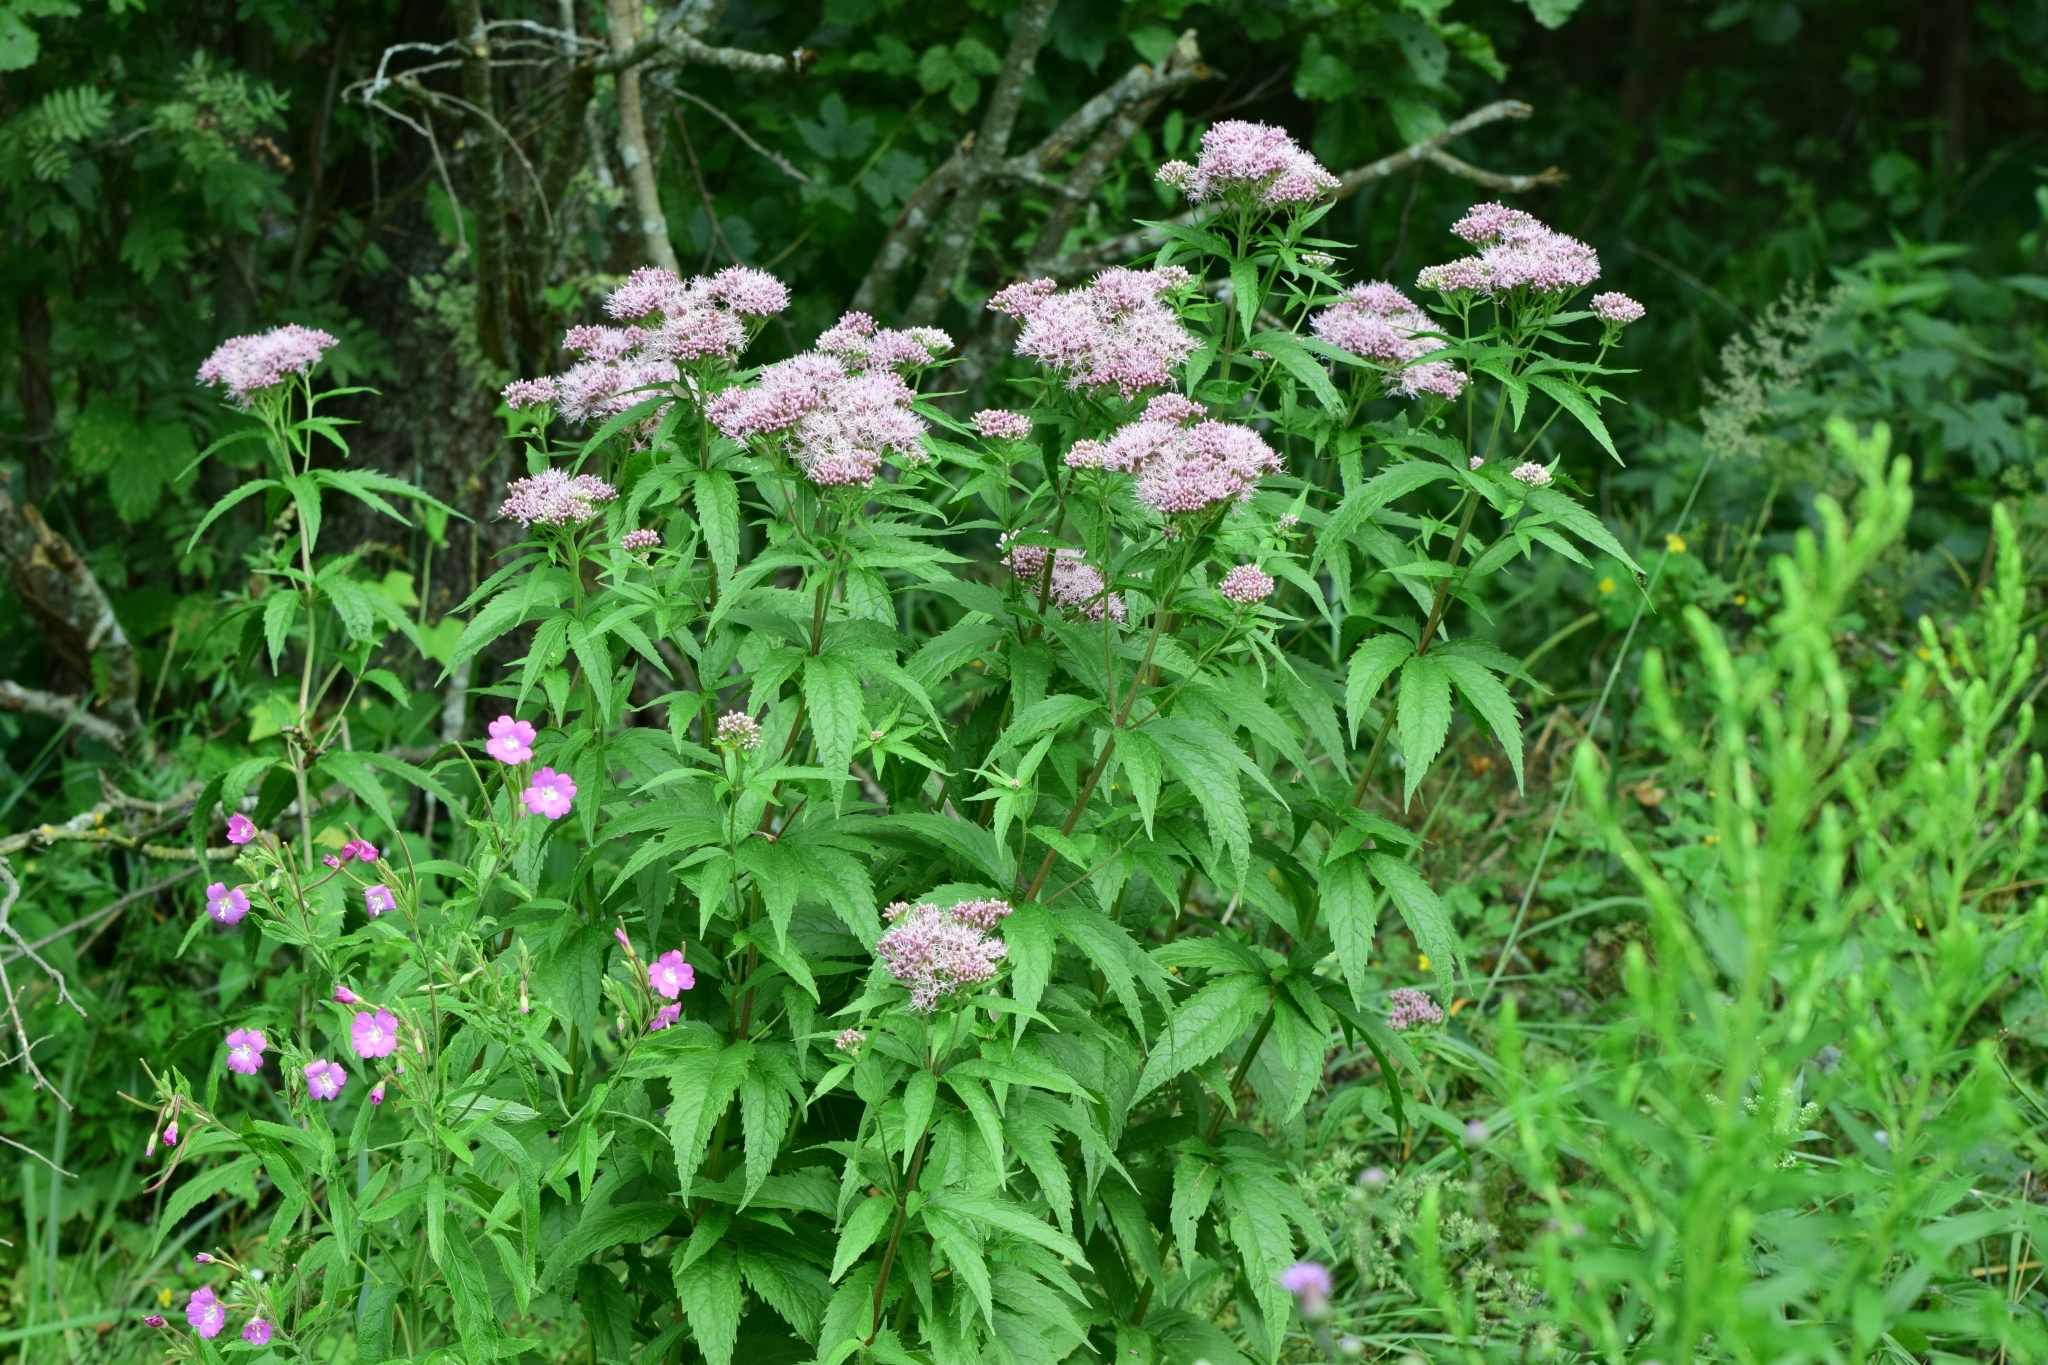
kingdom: Plantae
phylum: Tracheophyta
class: Magnoliopsida
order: Asterales
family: Asteraceae
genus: Eupatorium
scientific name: Eupatorium cannabinum
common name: Hemp-agrimony
